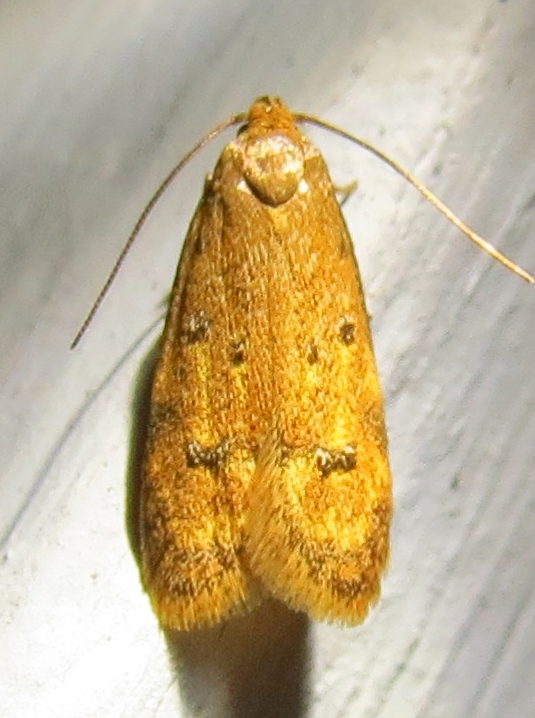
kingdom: Animalia
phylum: Arthropoda
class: Insecta
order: Lepidoptera
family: Autostichidae
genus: Gerdana
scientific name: Gerdana caritella
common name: Gerdana moth
